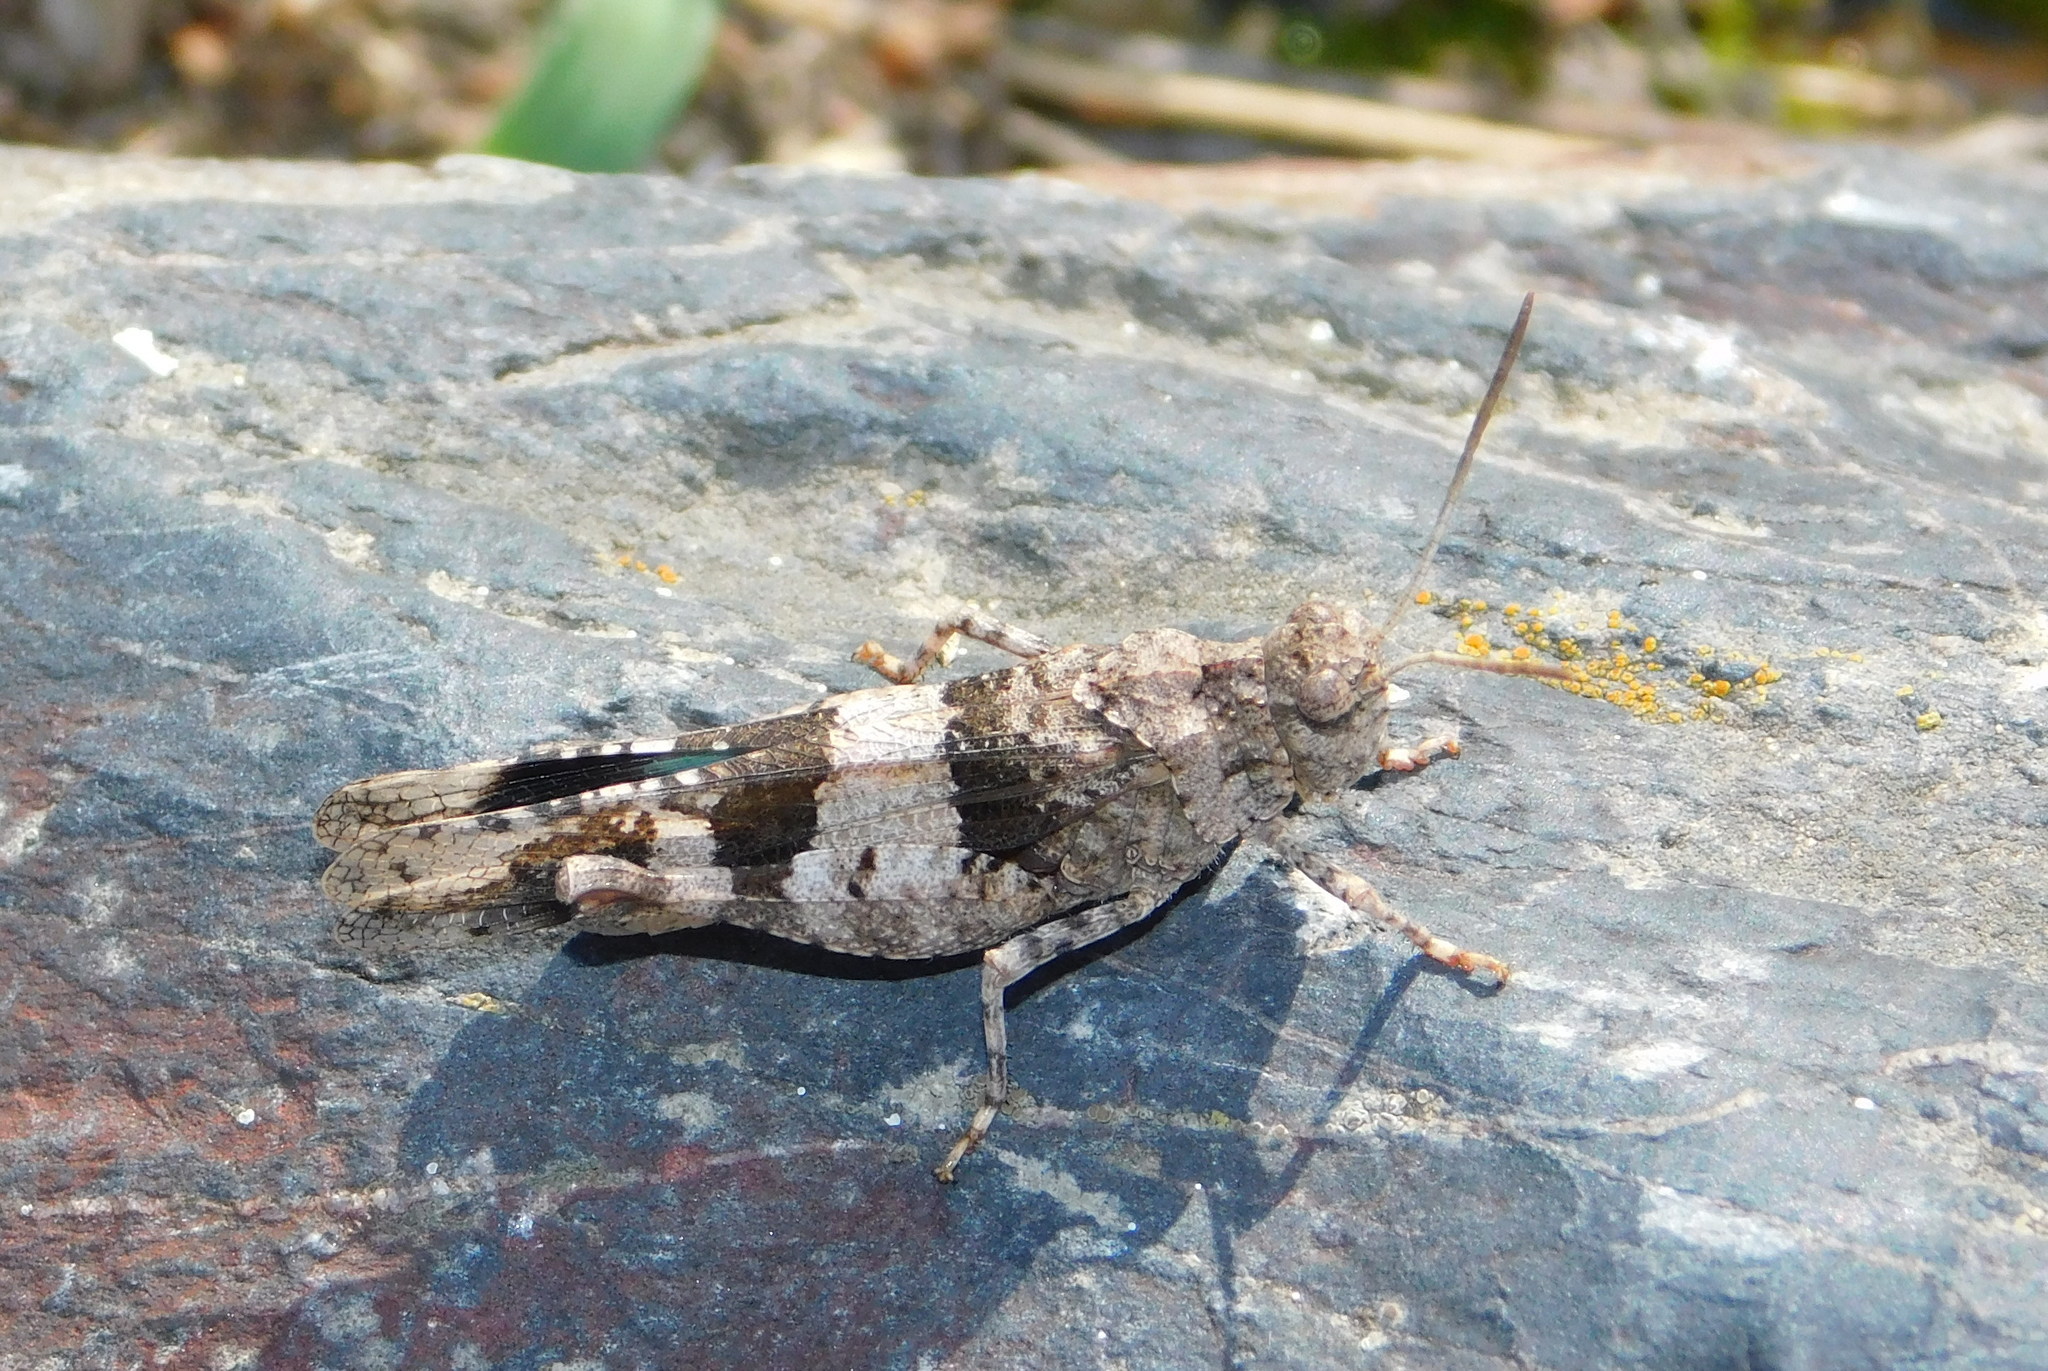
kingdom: Animalia
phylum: Arthropoda
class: Insecta
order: Orthoptera
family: Acrididae
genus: Oedipoda
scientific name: Oedipoda caerulescens
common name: Blue-winged grasshopper
